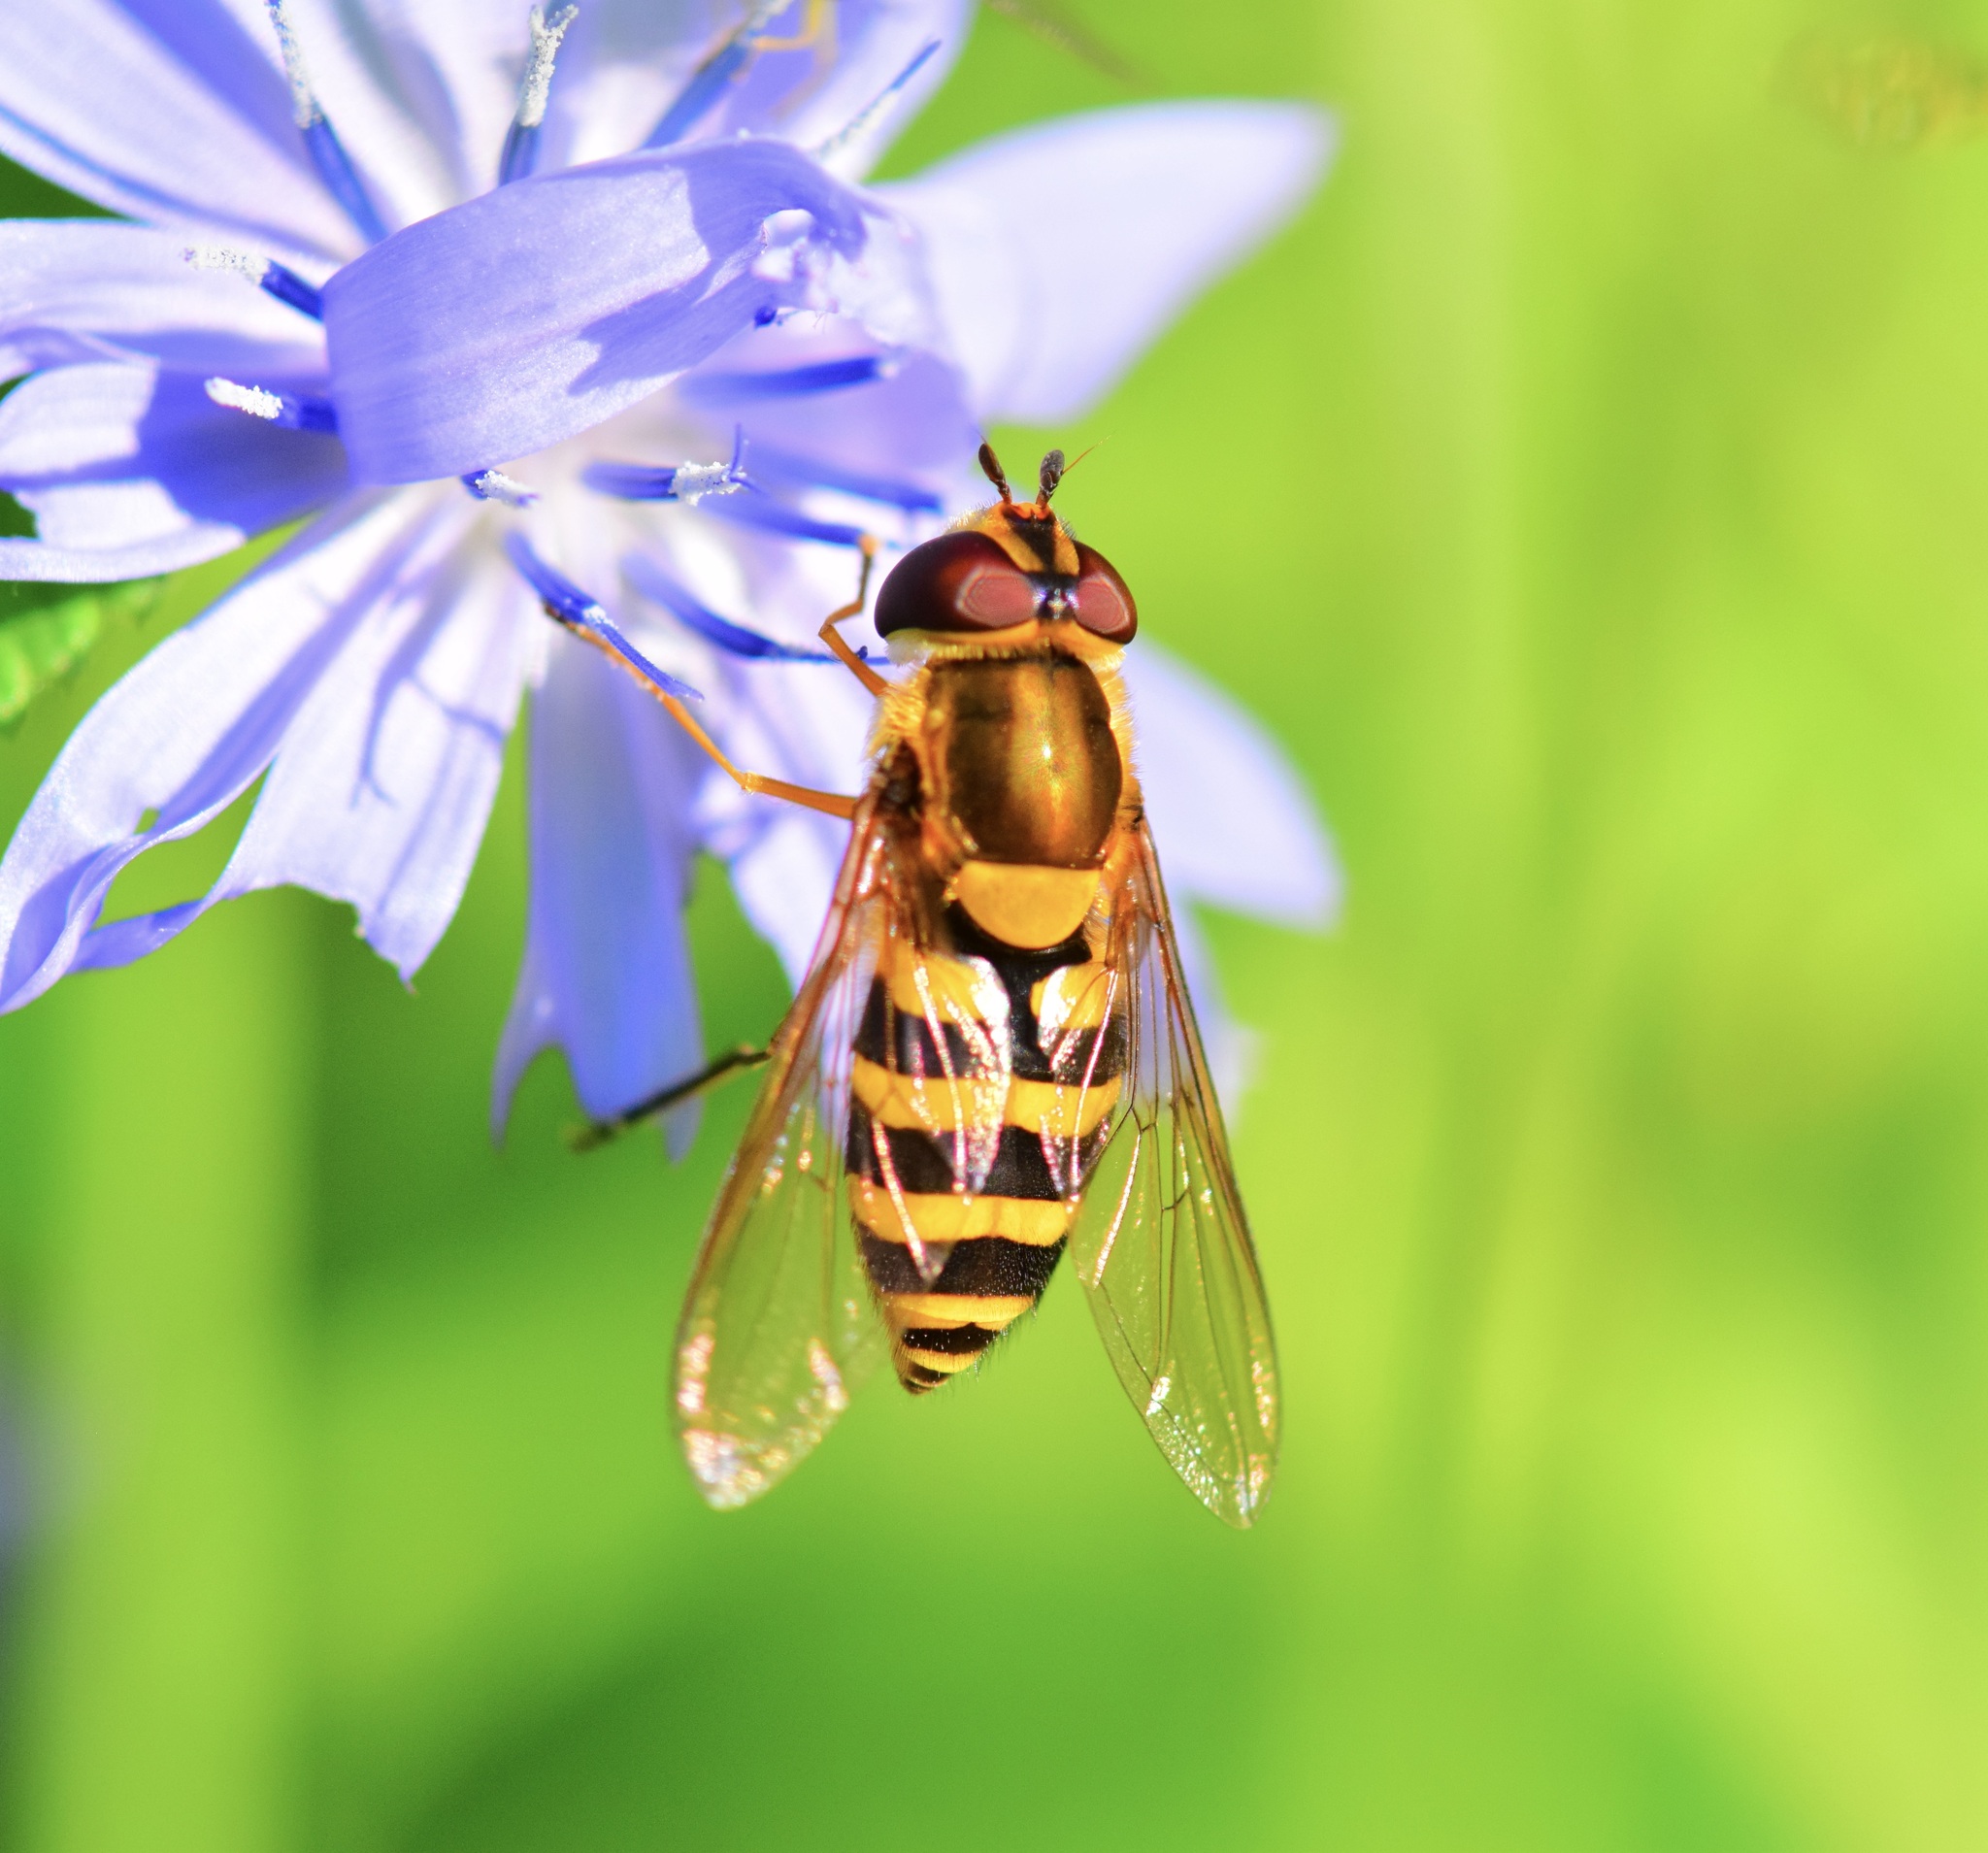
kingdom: Animalia
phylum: Arthropoda
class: Insecta
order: Diptera
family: Syrphidae
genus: Syrphus
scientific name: Syrphus
